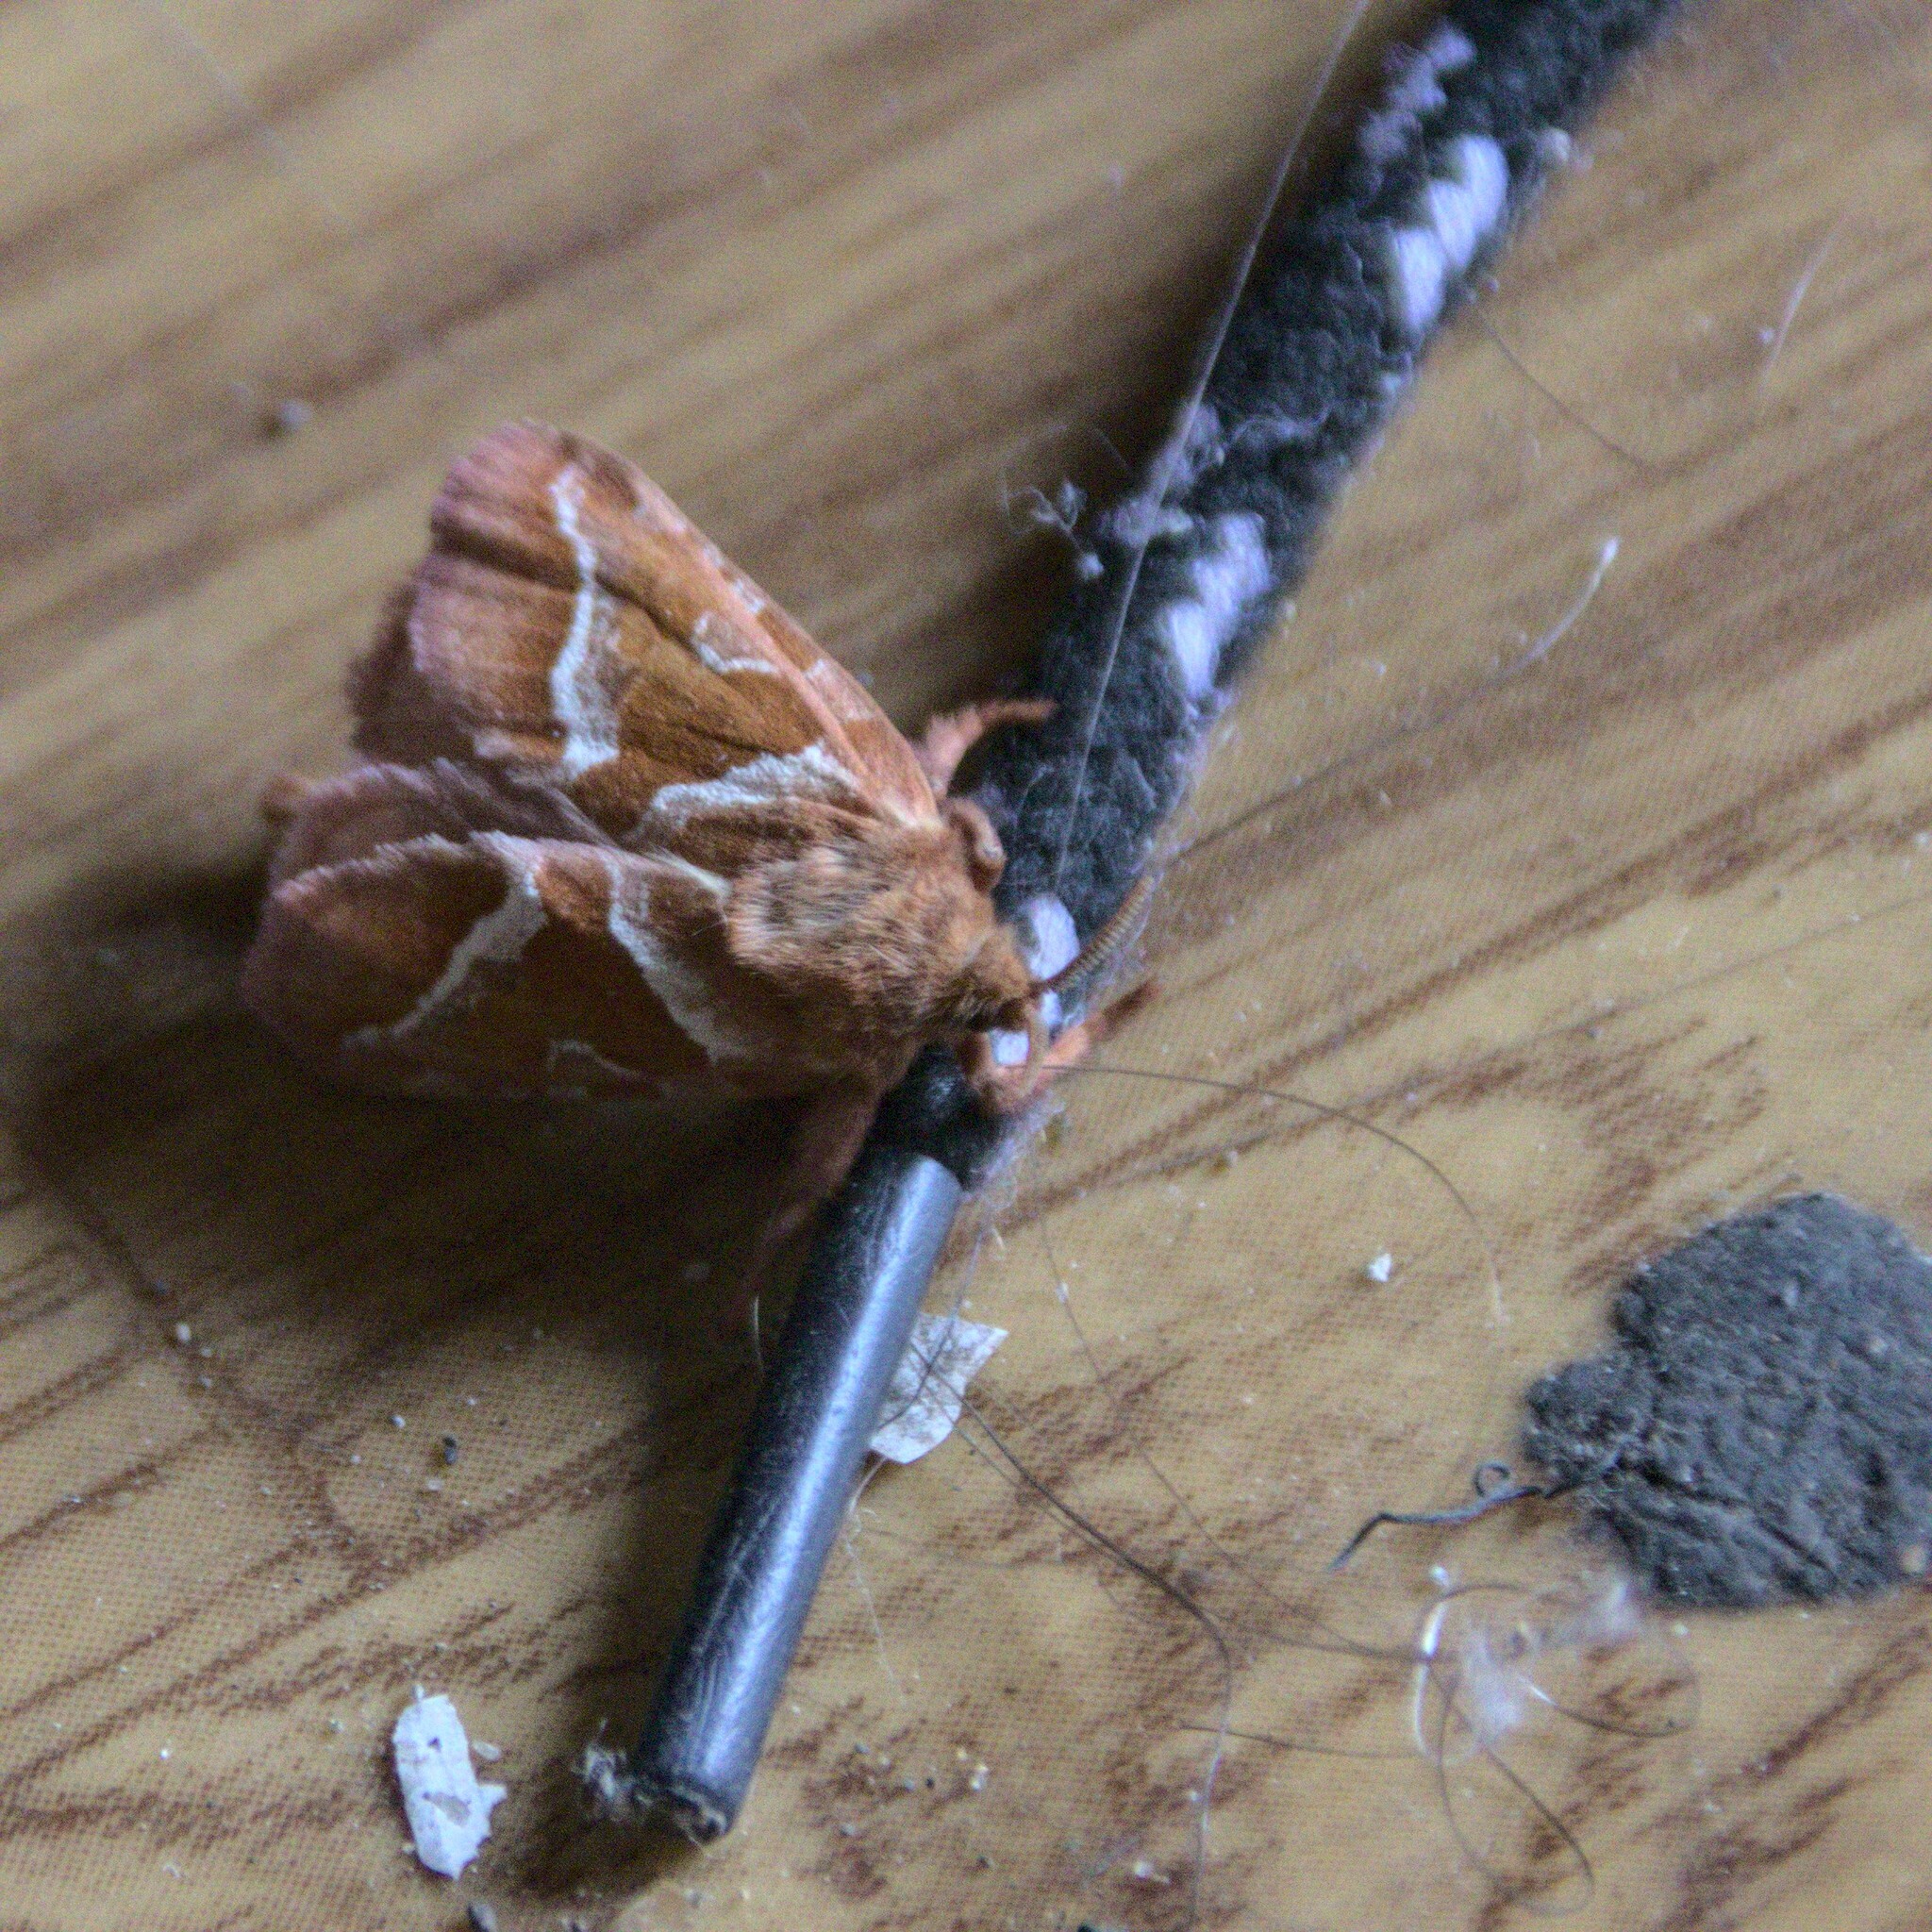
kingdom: Animalia
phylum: Arthropoda
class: Insecta
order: Lepidoptera
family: Hepialidae
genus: Triodia
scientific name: Triodia sylvina
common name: Orange swift
